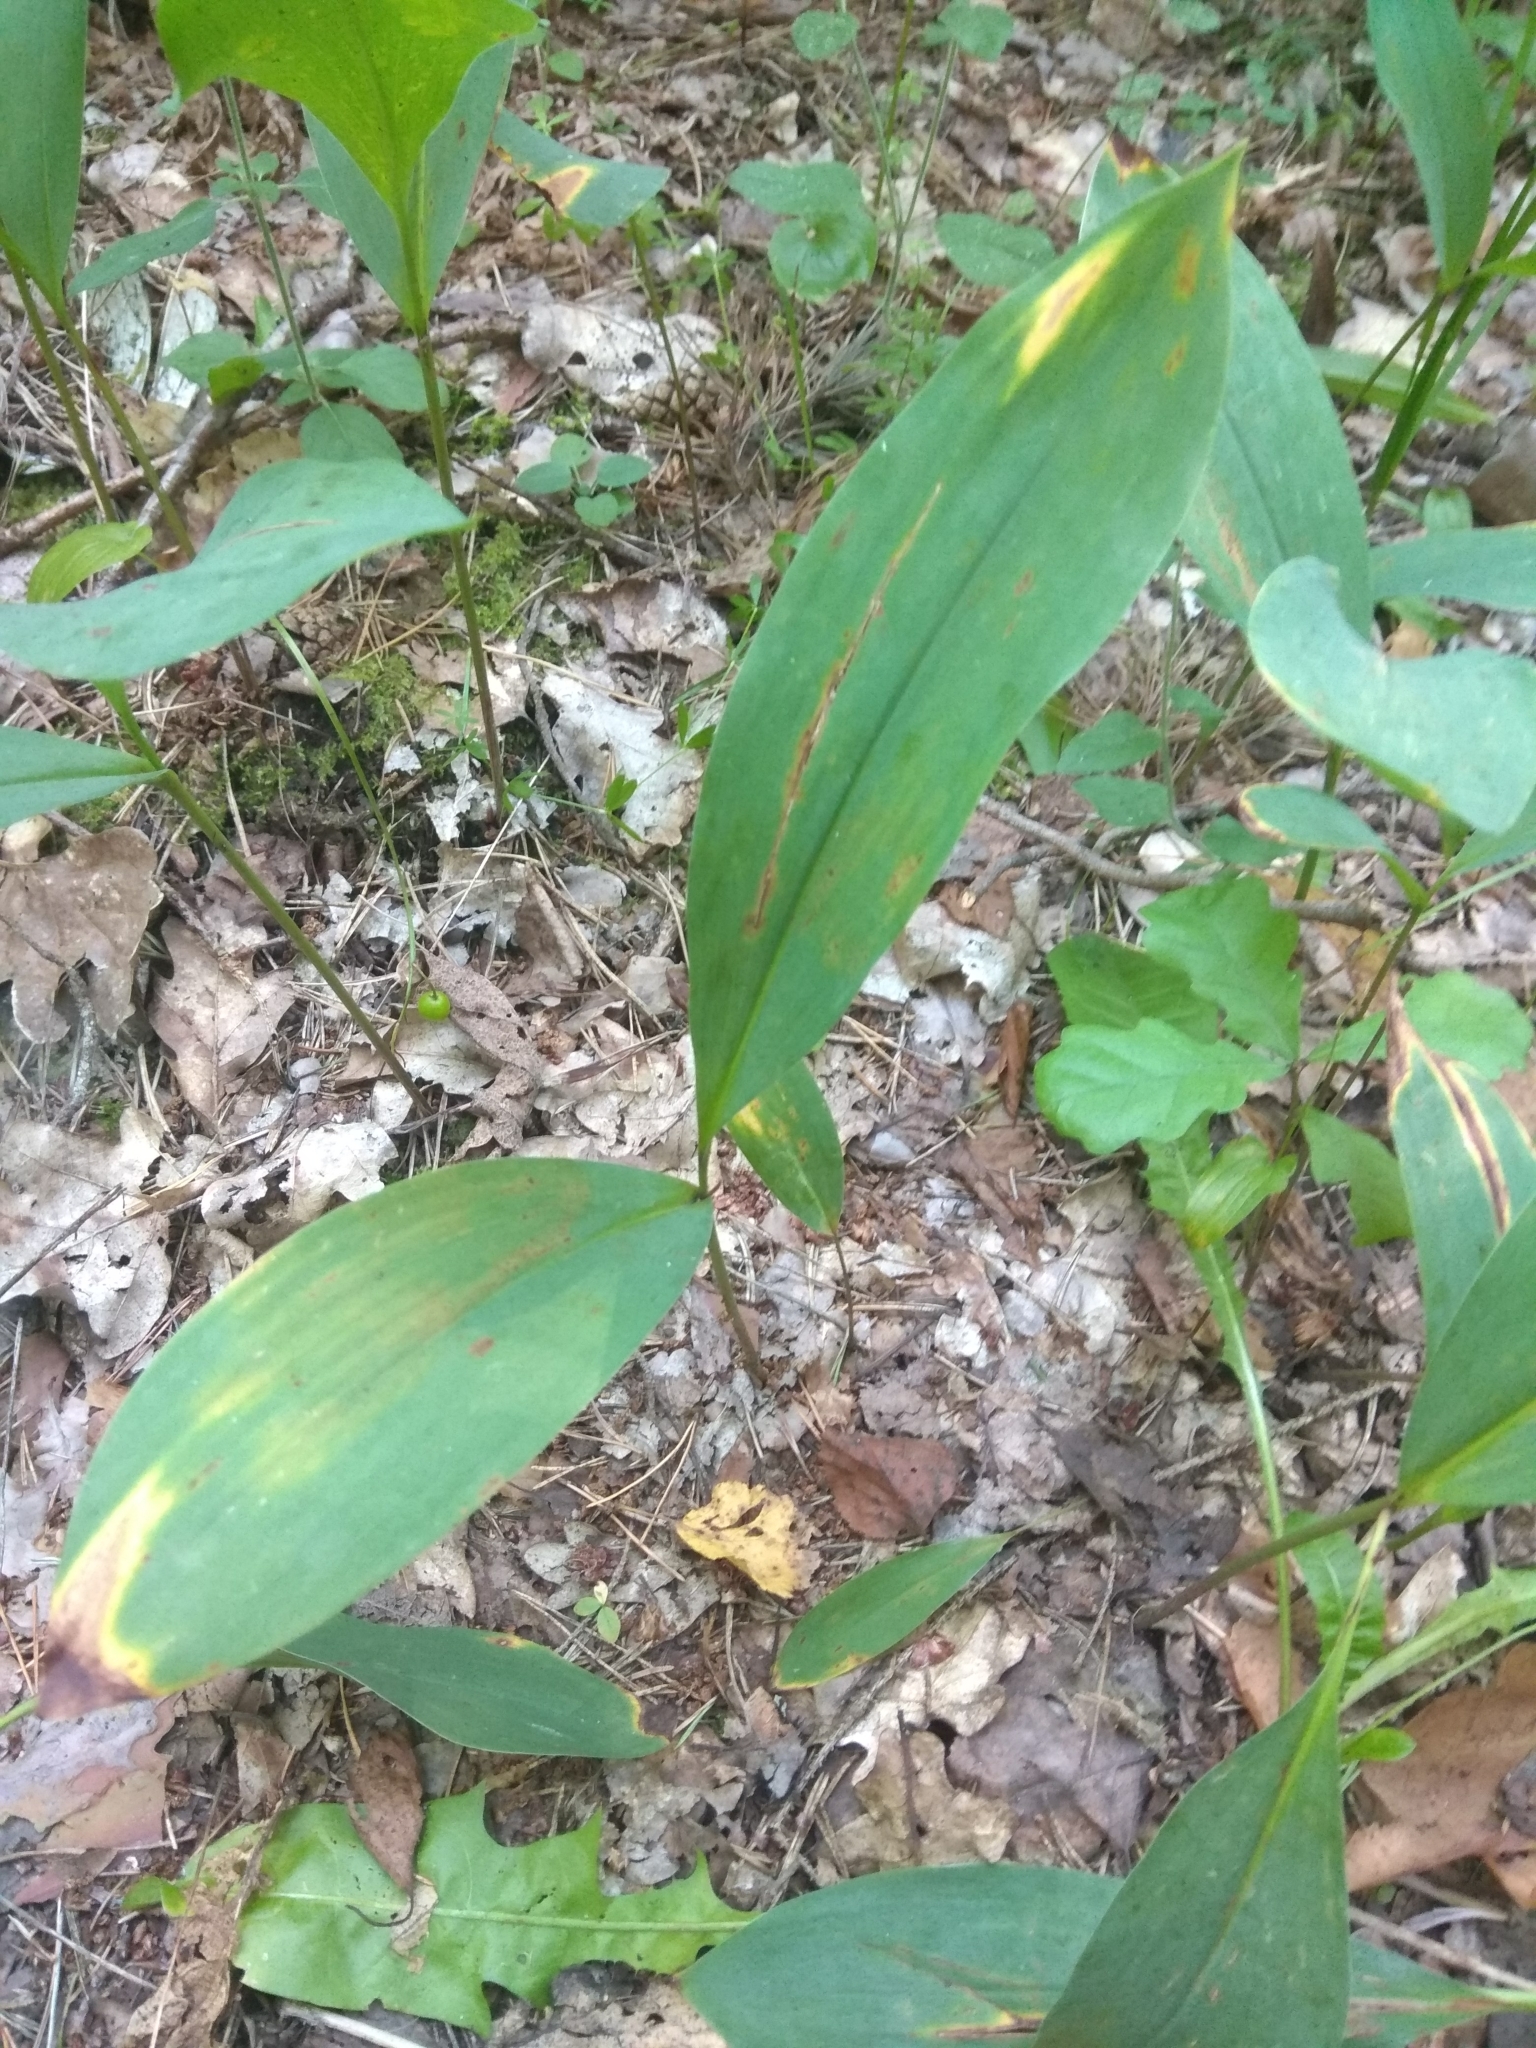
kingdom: Plantae
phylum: Tracheophyta
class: Liliopsida
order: Asparagales
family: Asparagaceae
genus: Convallaria
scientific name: Convallaria majalis
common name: Lily-of-the-valley
